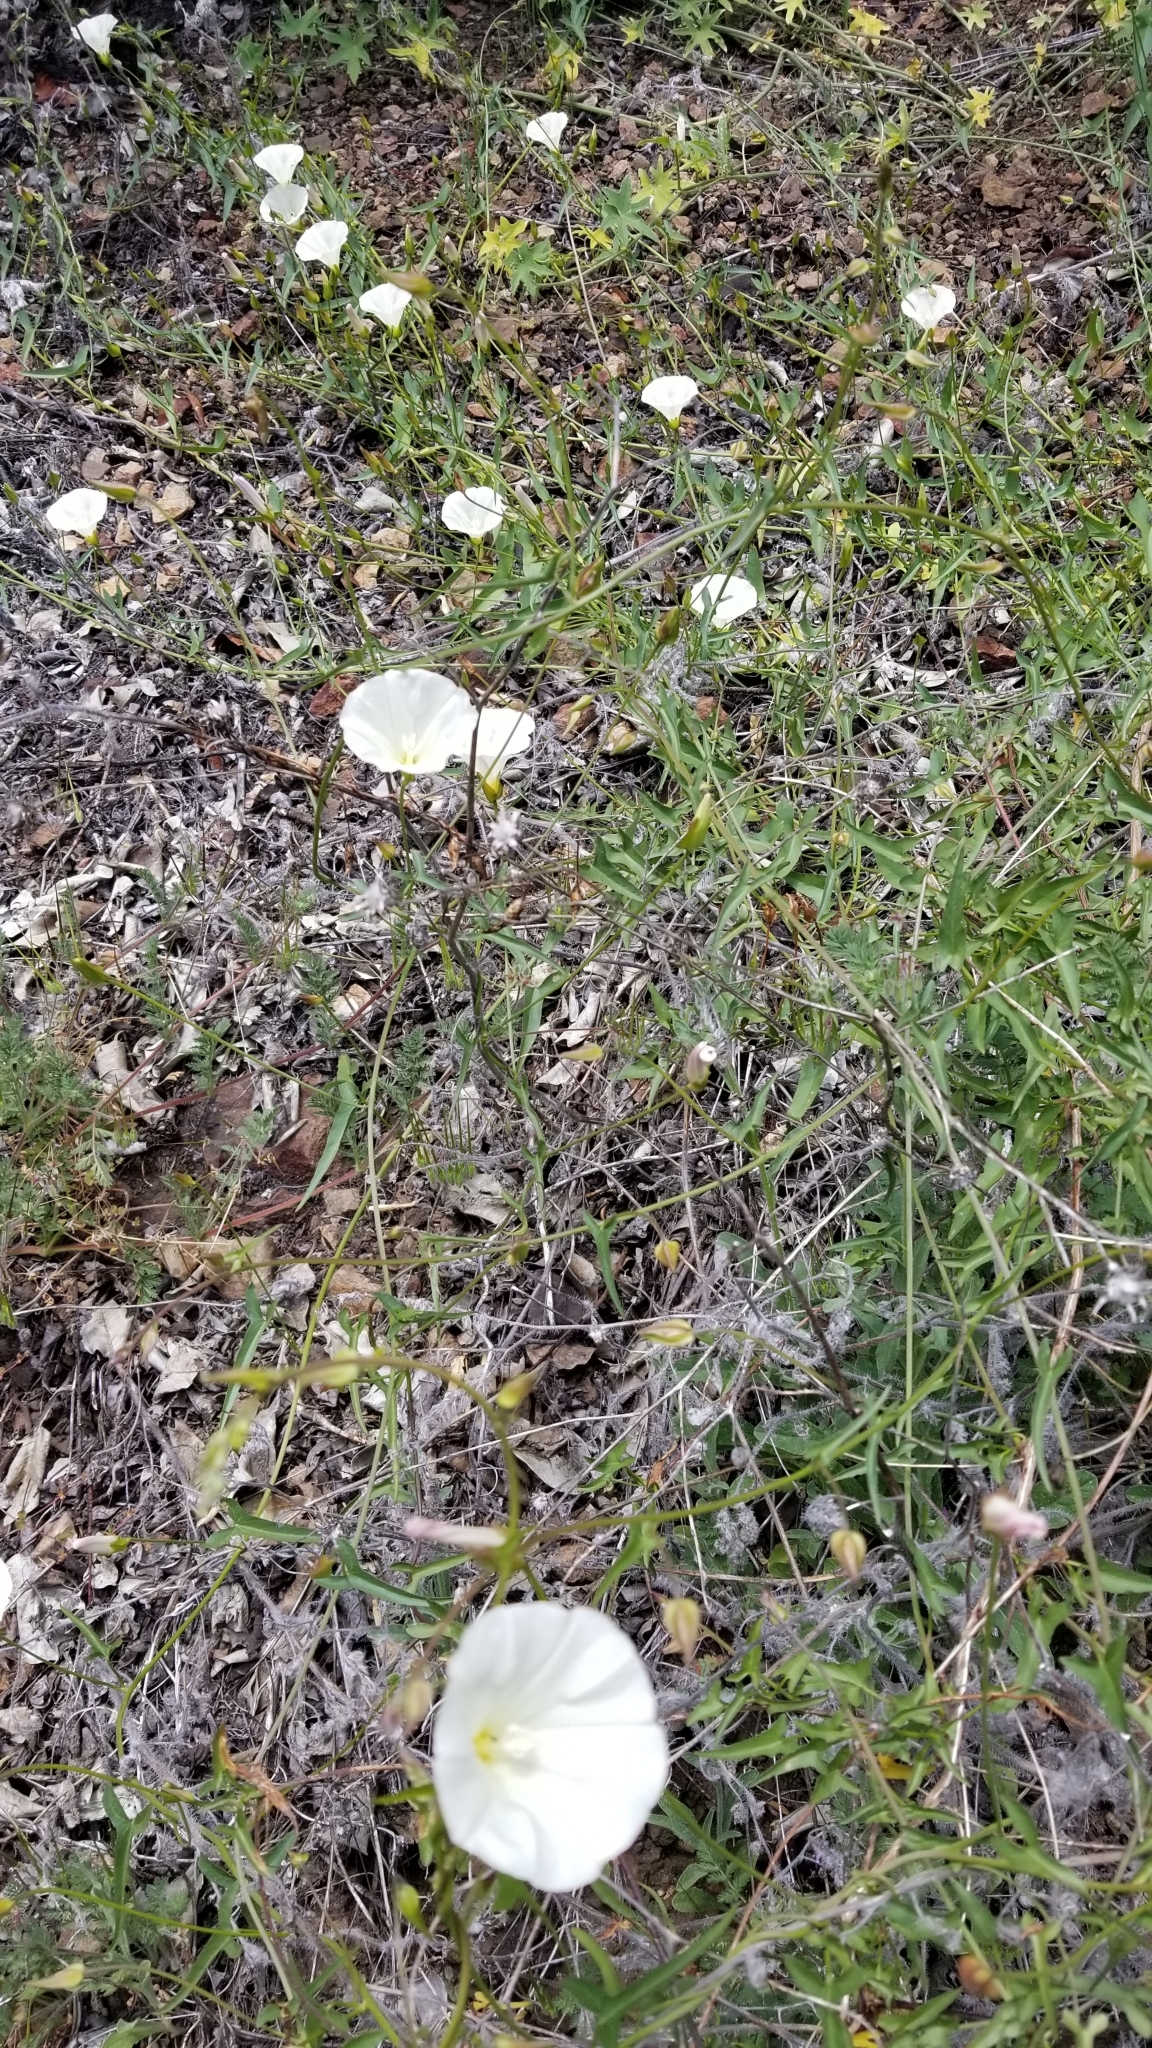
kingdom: Plantae
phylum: Tracheophyta
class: Magnoliopsida
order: Solanales
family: Convolvulaceae
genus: Calystegia
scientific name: Calystegia macrostegia
